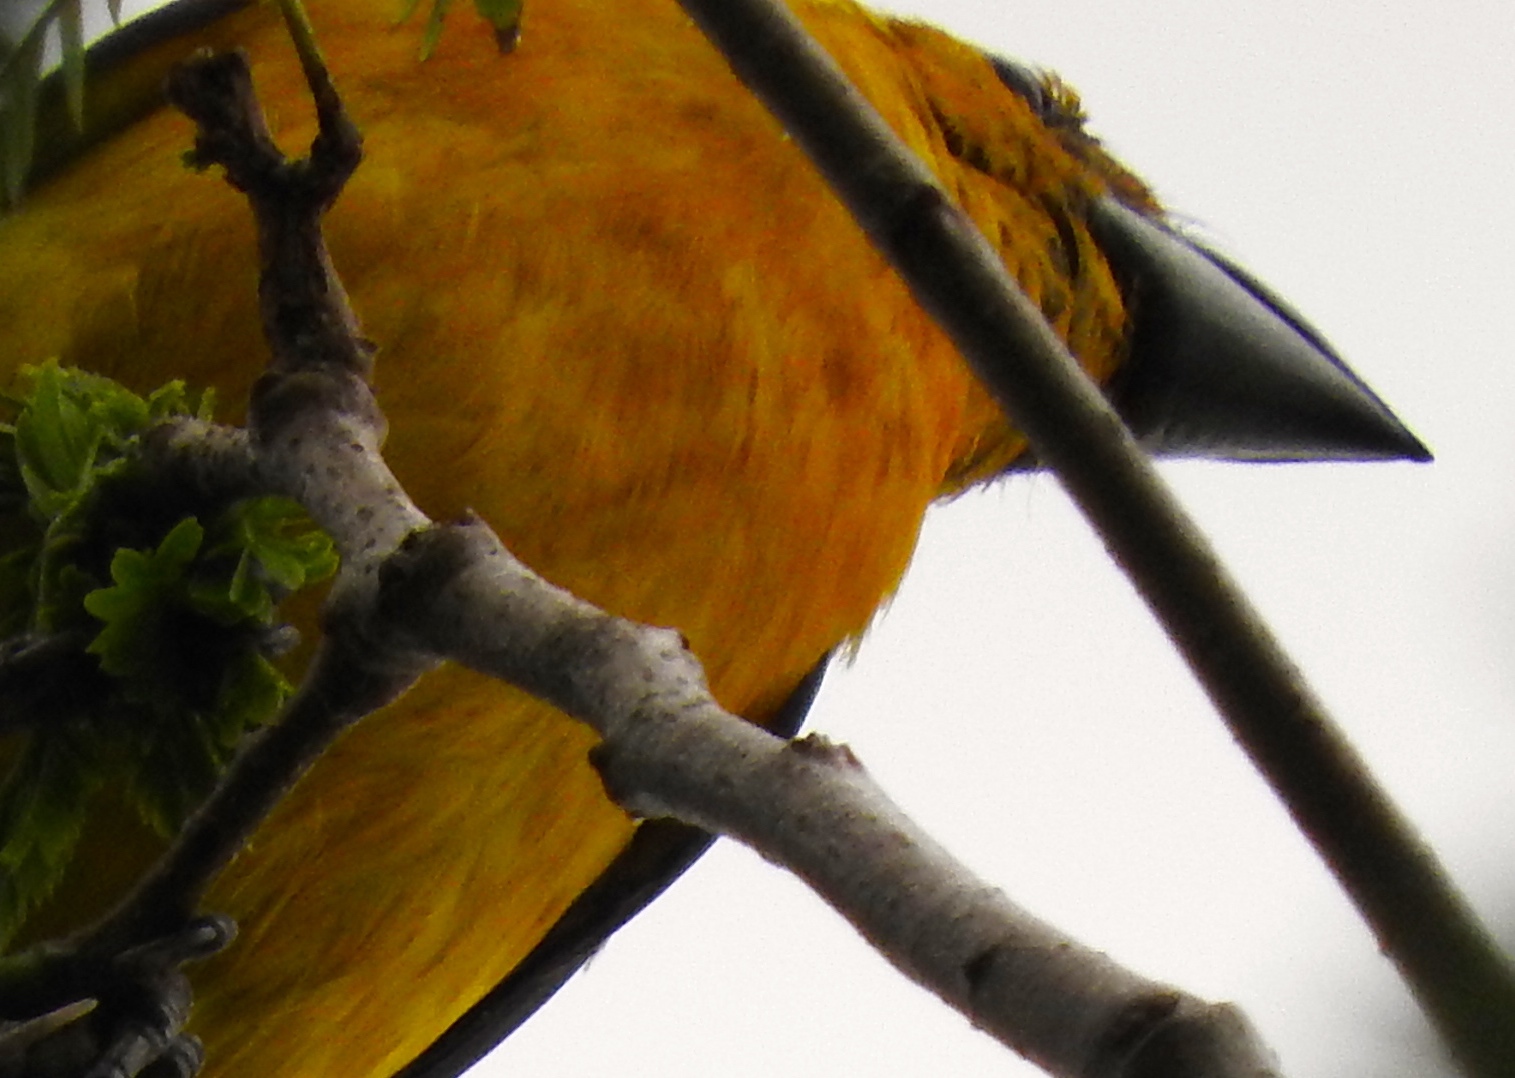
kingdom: Animalia
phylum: Chordata
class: Aves
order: Passeriformes
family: Cardinalidae
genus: Pheucticus
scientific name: Pheucticus chrysopeplus
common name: Yellow grosbeak
